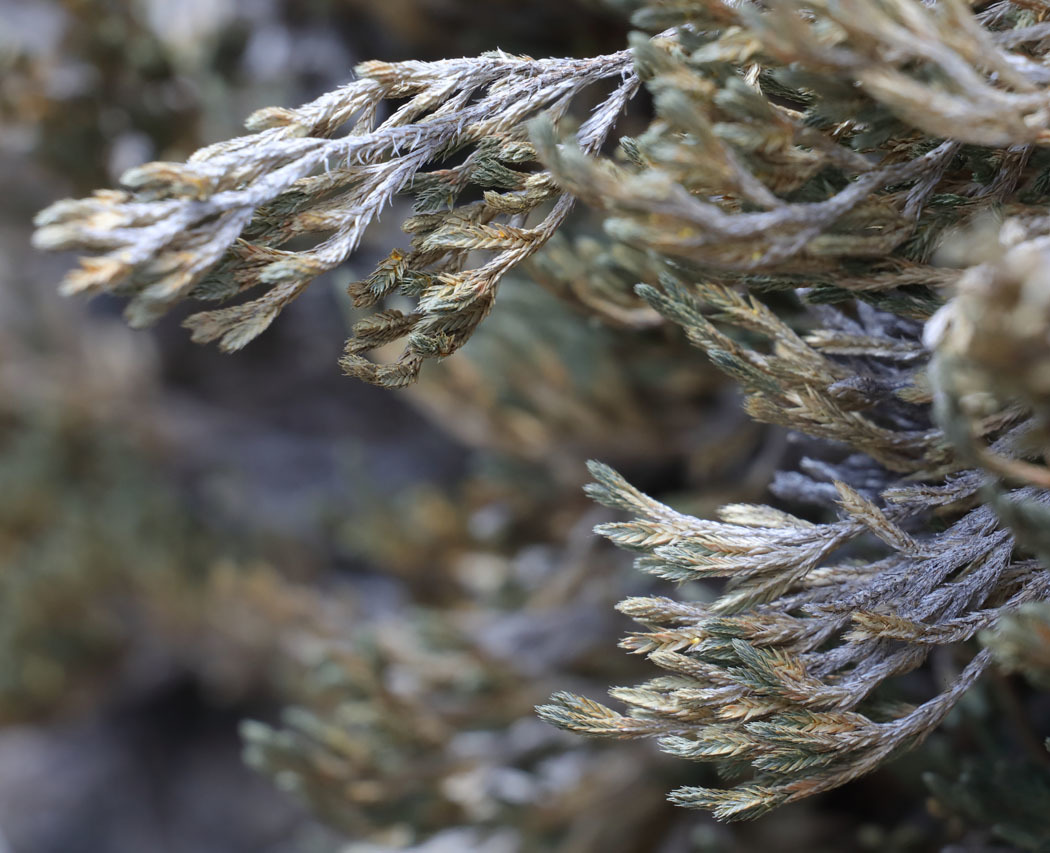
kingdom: Plantae
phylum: Tracheophyta
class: Lycopodiopsida
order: Selaginellales
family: Selaginellaceae
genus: Selaginella
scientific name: Selaginella bigelovii
